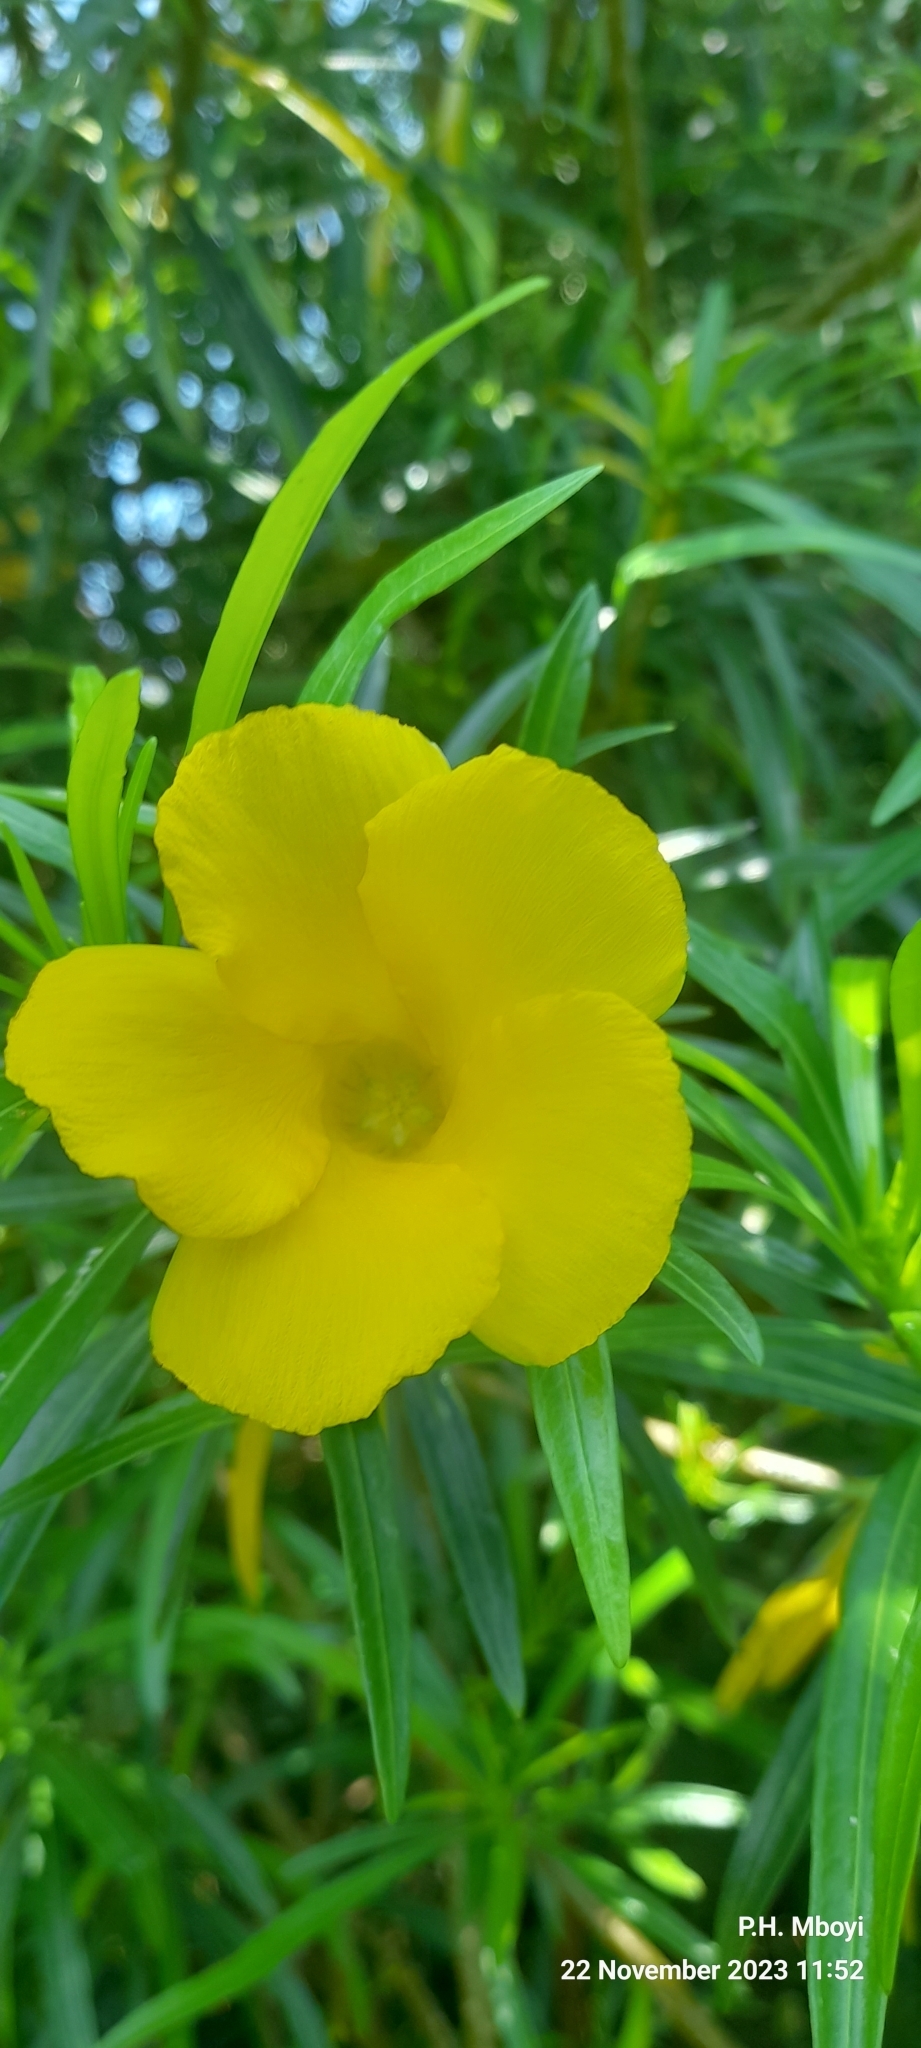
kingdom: Plantae
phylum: Tracheophyta
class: Magnoliopsida
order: Gentianales
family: Apocynaceae
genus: Cascabela
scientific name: Cascabela thevetia
